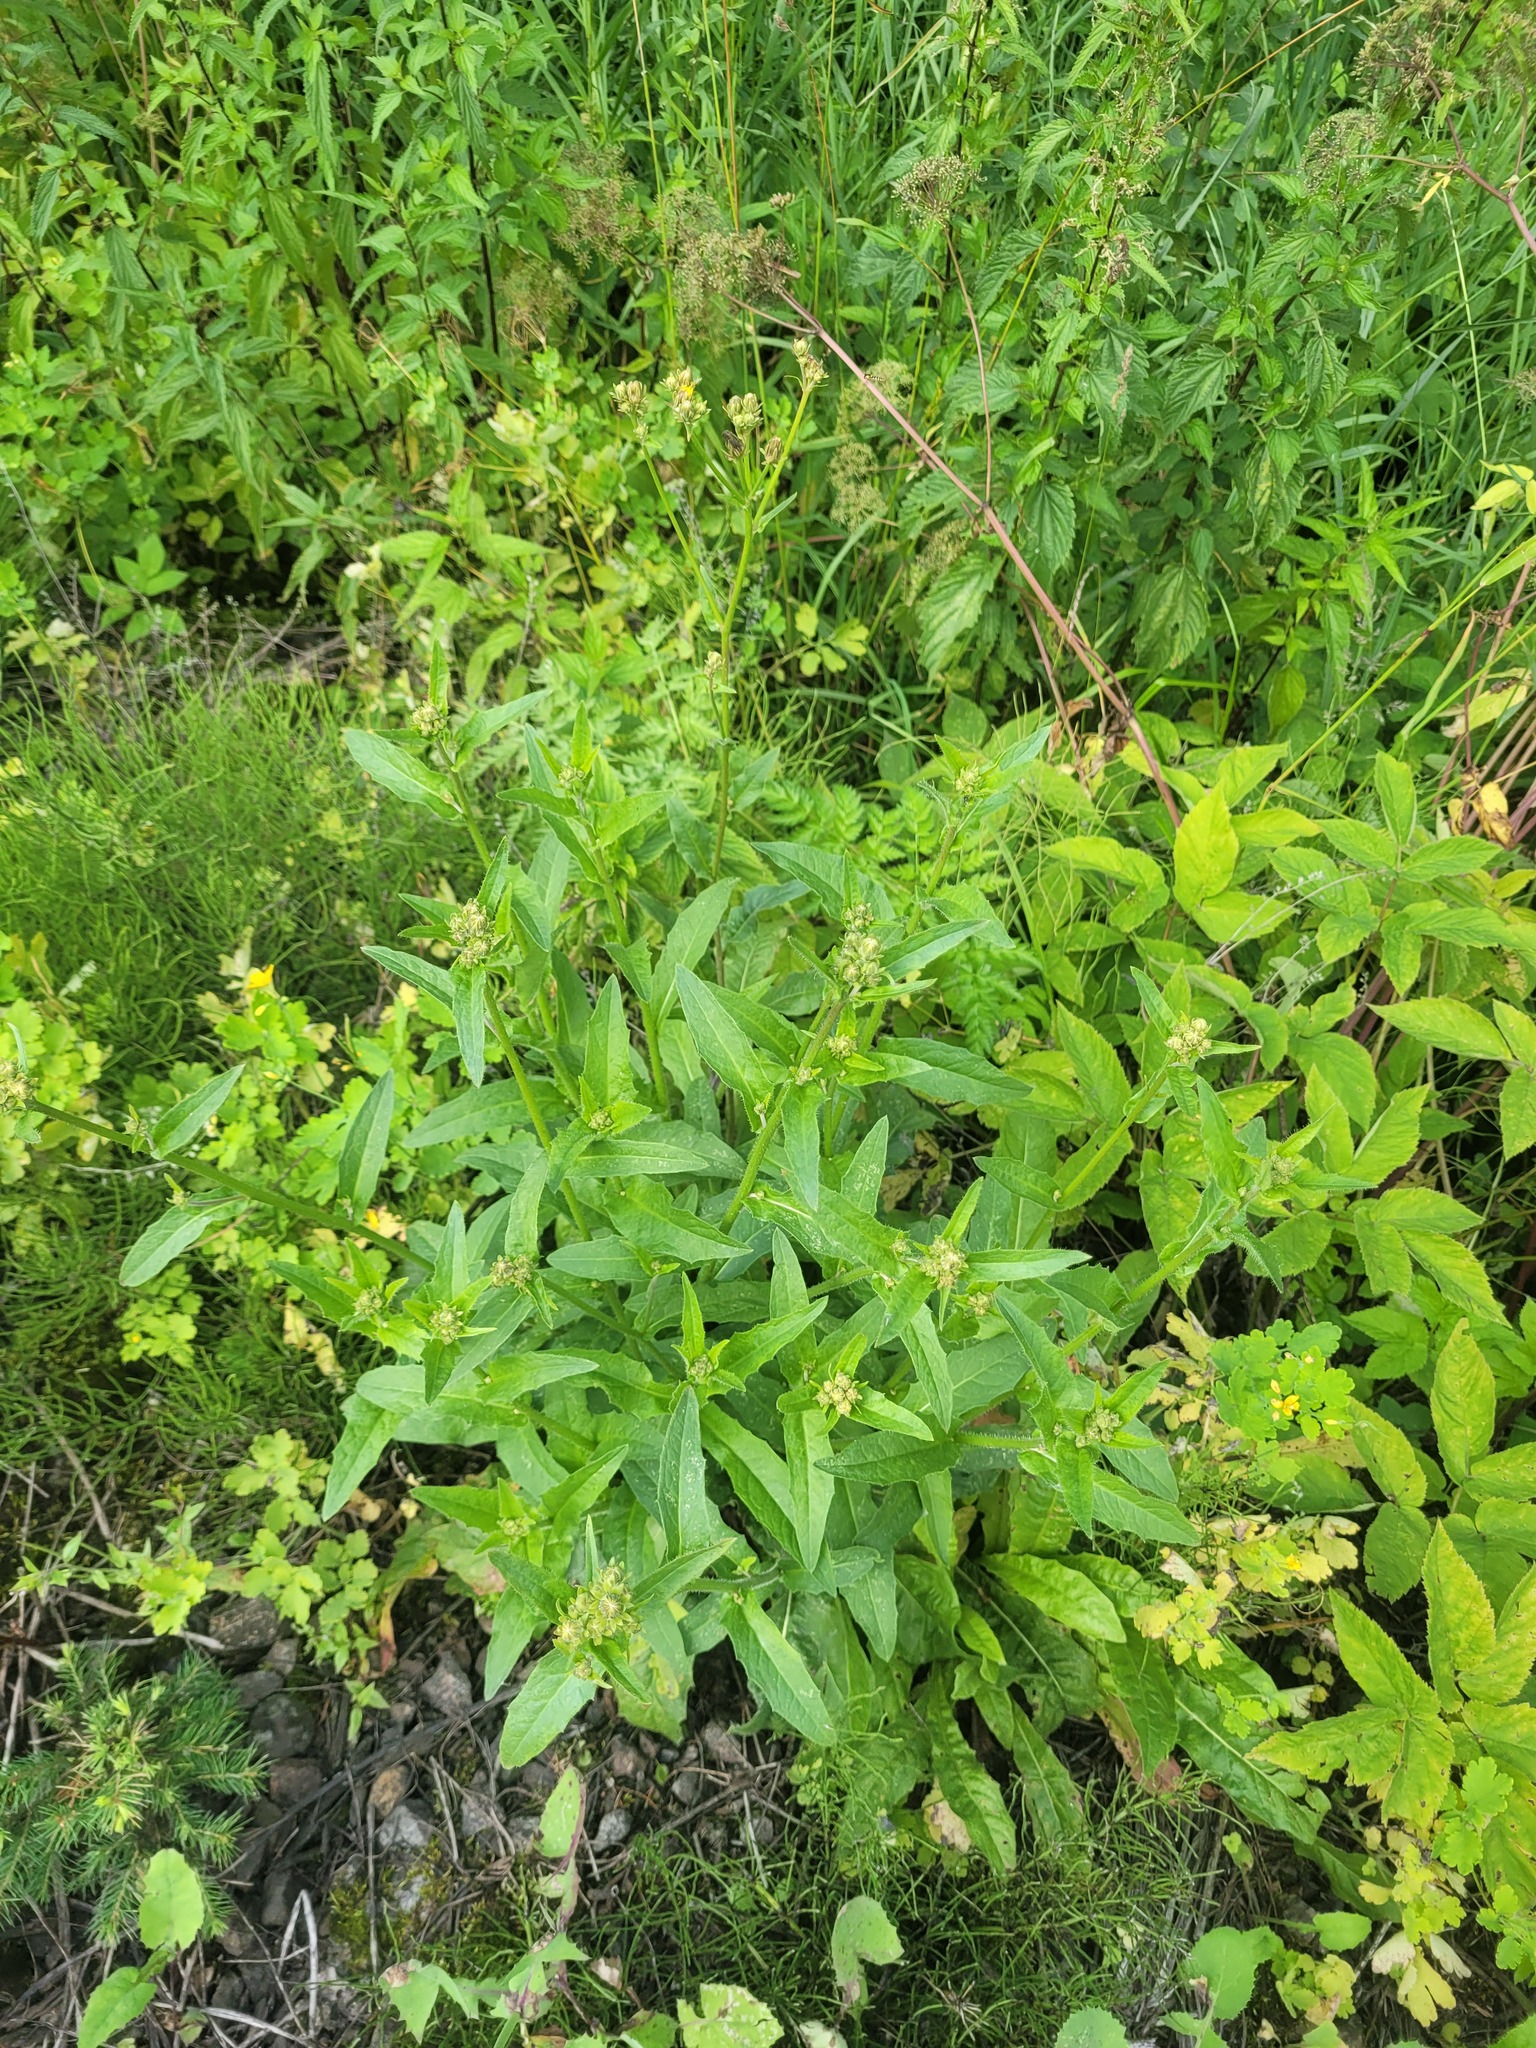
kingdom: Plantae
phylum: Tracheophyta
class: Magnoliopsida
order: Asterales
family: Asteraceae
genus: Picris
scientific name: Picris hieracioides
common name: Hawkweed oxtongue
